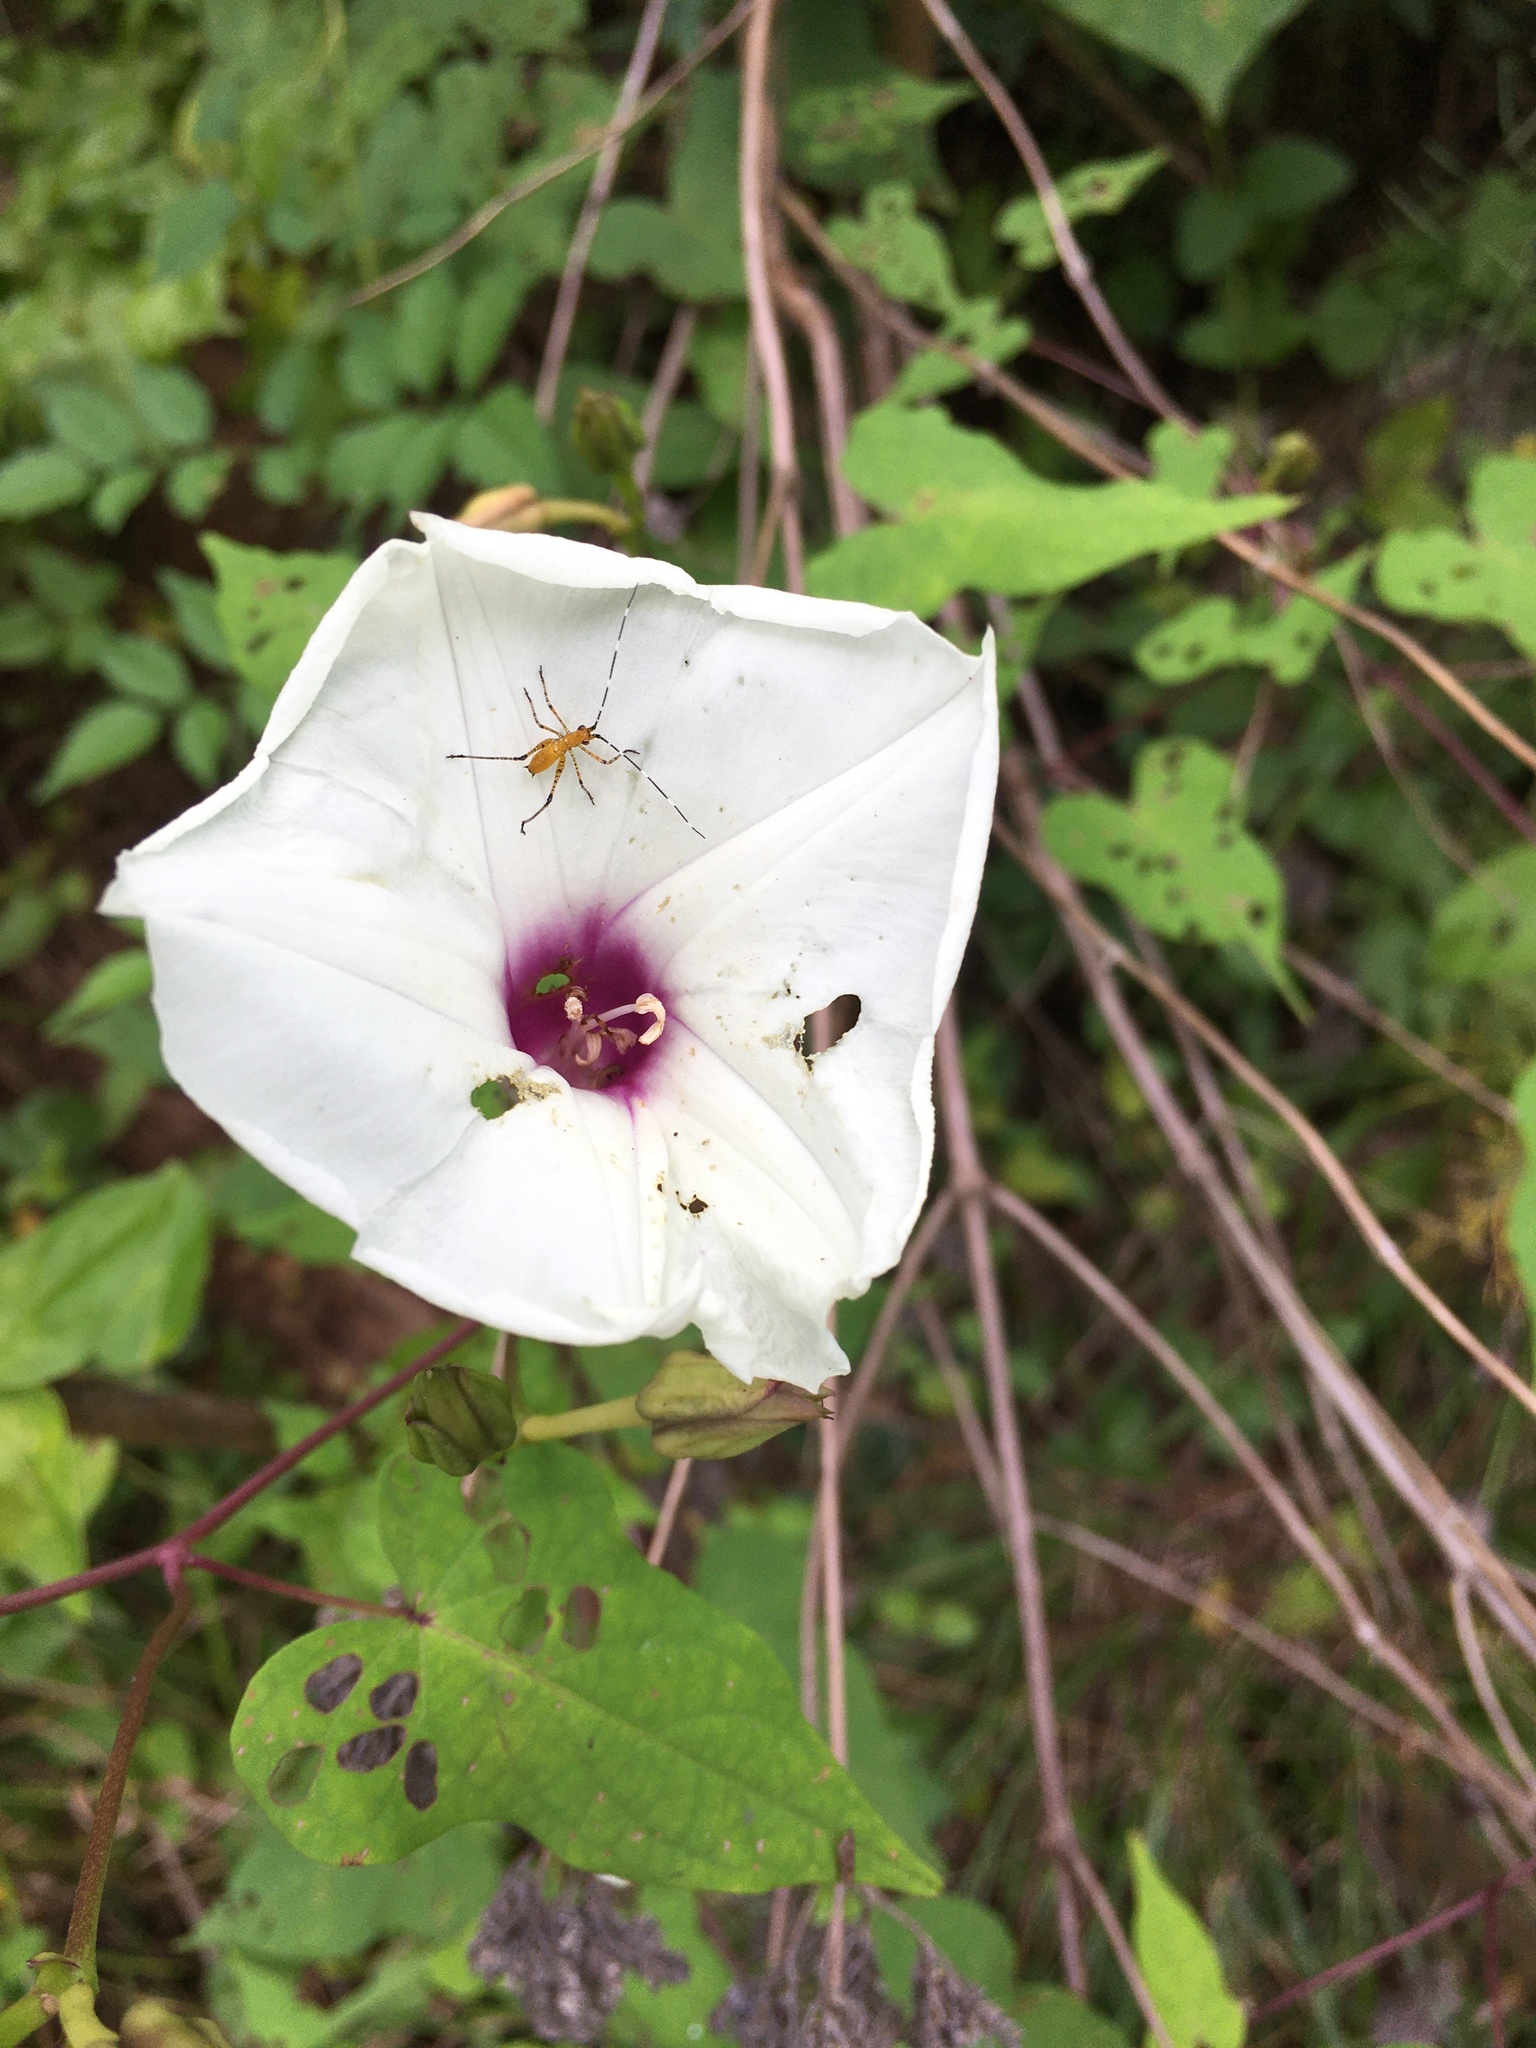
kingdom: Plantae
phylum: Tracheophyta
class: Magnoliopsida
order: Solanales
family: Convolvulaceae
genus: Ipomoea
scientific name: Ipomoea pandurata
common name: Man-of-the-earth
